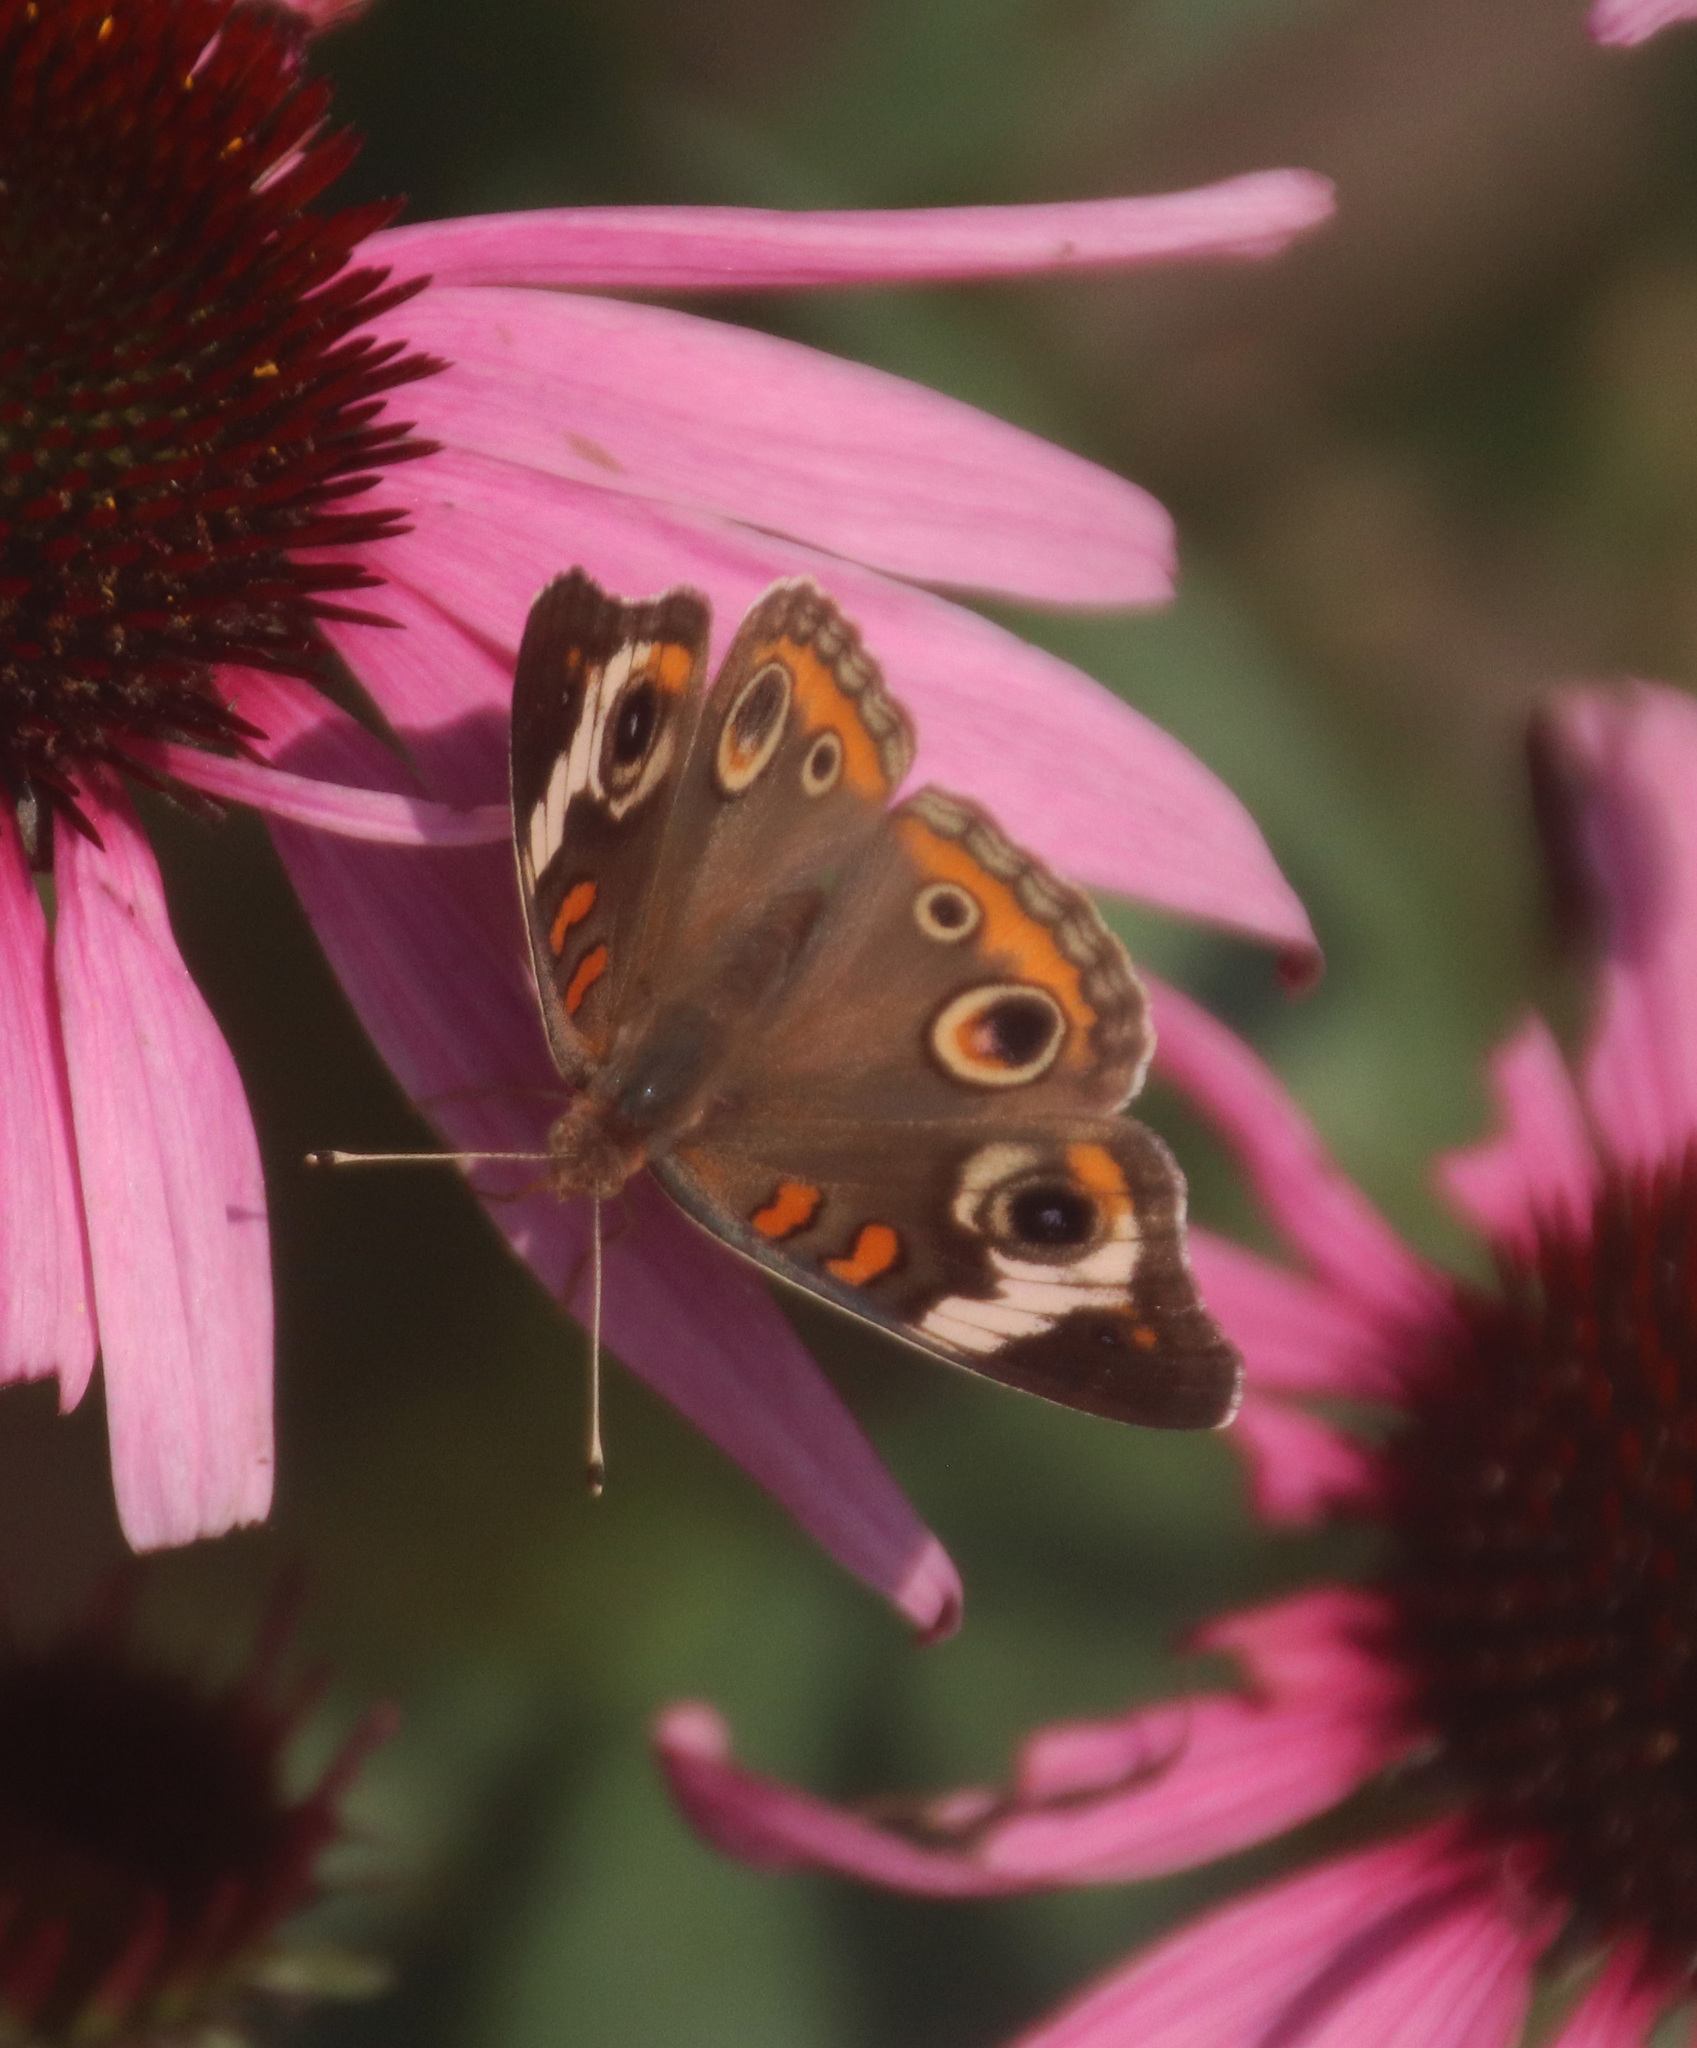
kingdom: Animalia
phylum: Arthropoda
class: Insecta
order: Lepidoptera
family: Nymphalidae
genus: Junonia
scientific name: Junonia coenia
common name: Common buckeye
